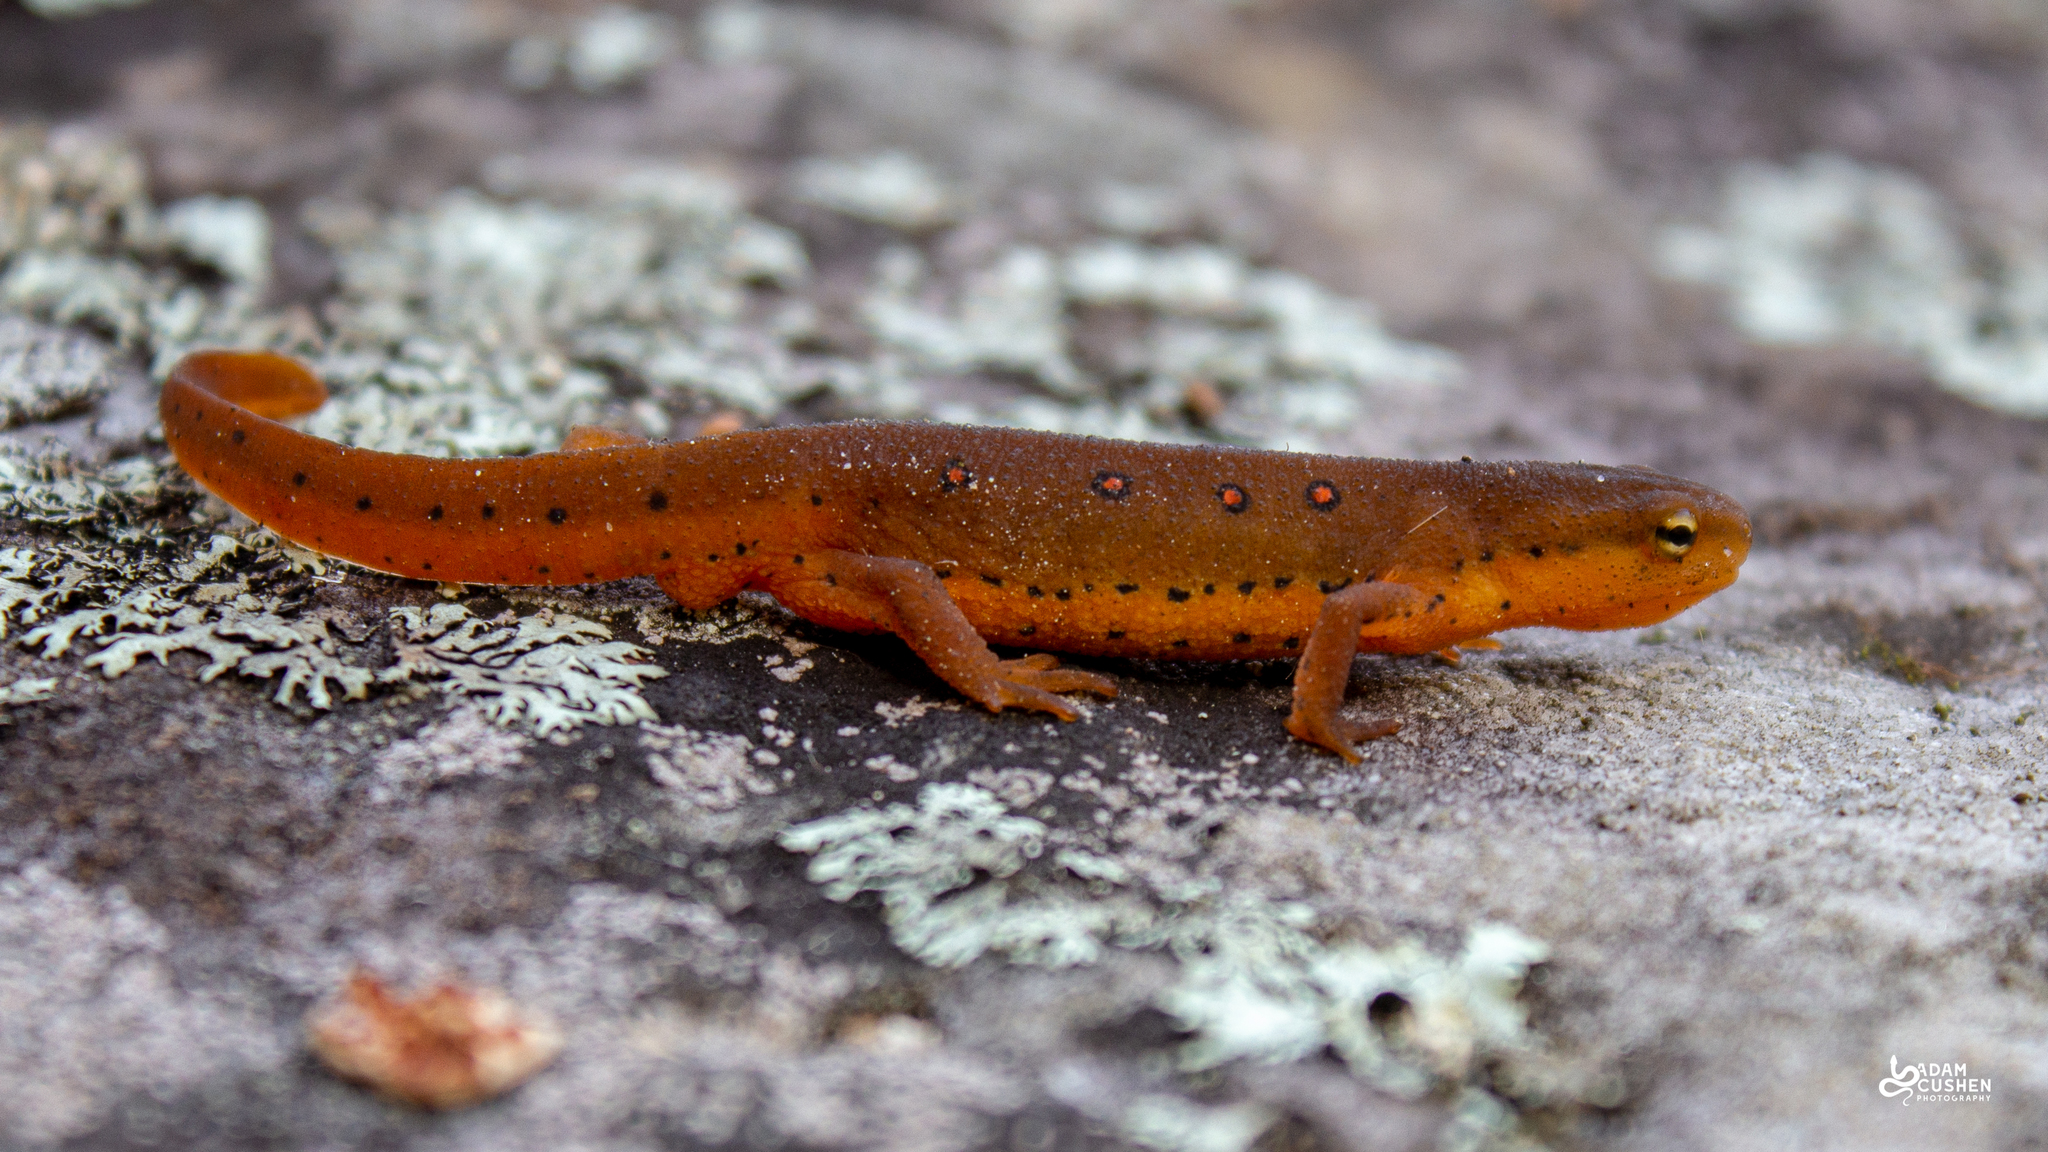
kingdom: Animalia
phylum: Chordata
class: Amphibia
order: Caudata
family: Salamandridae
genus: Notophthalmus
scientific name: Notophthalmus viridescens
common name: Eastern newt
